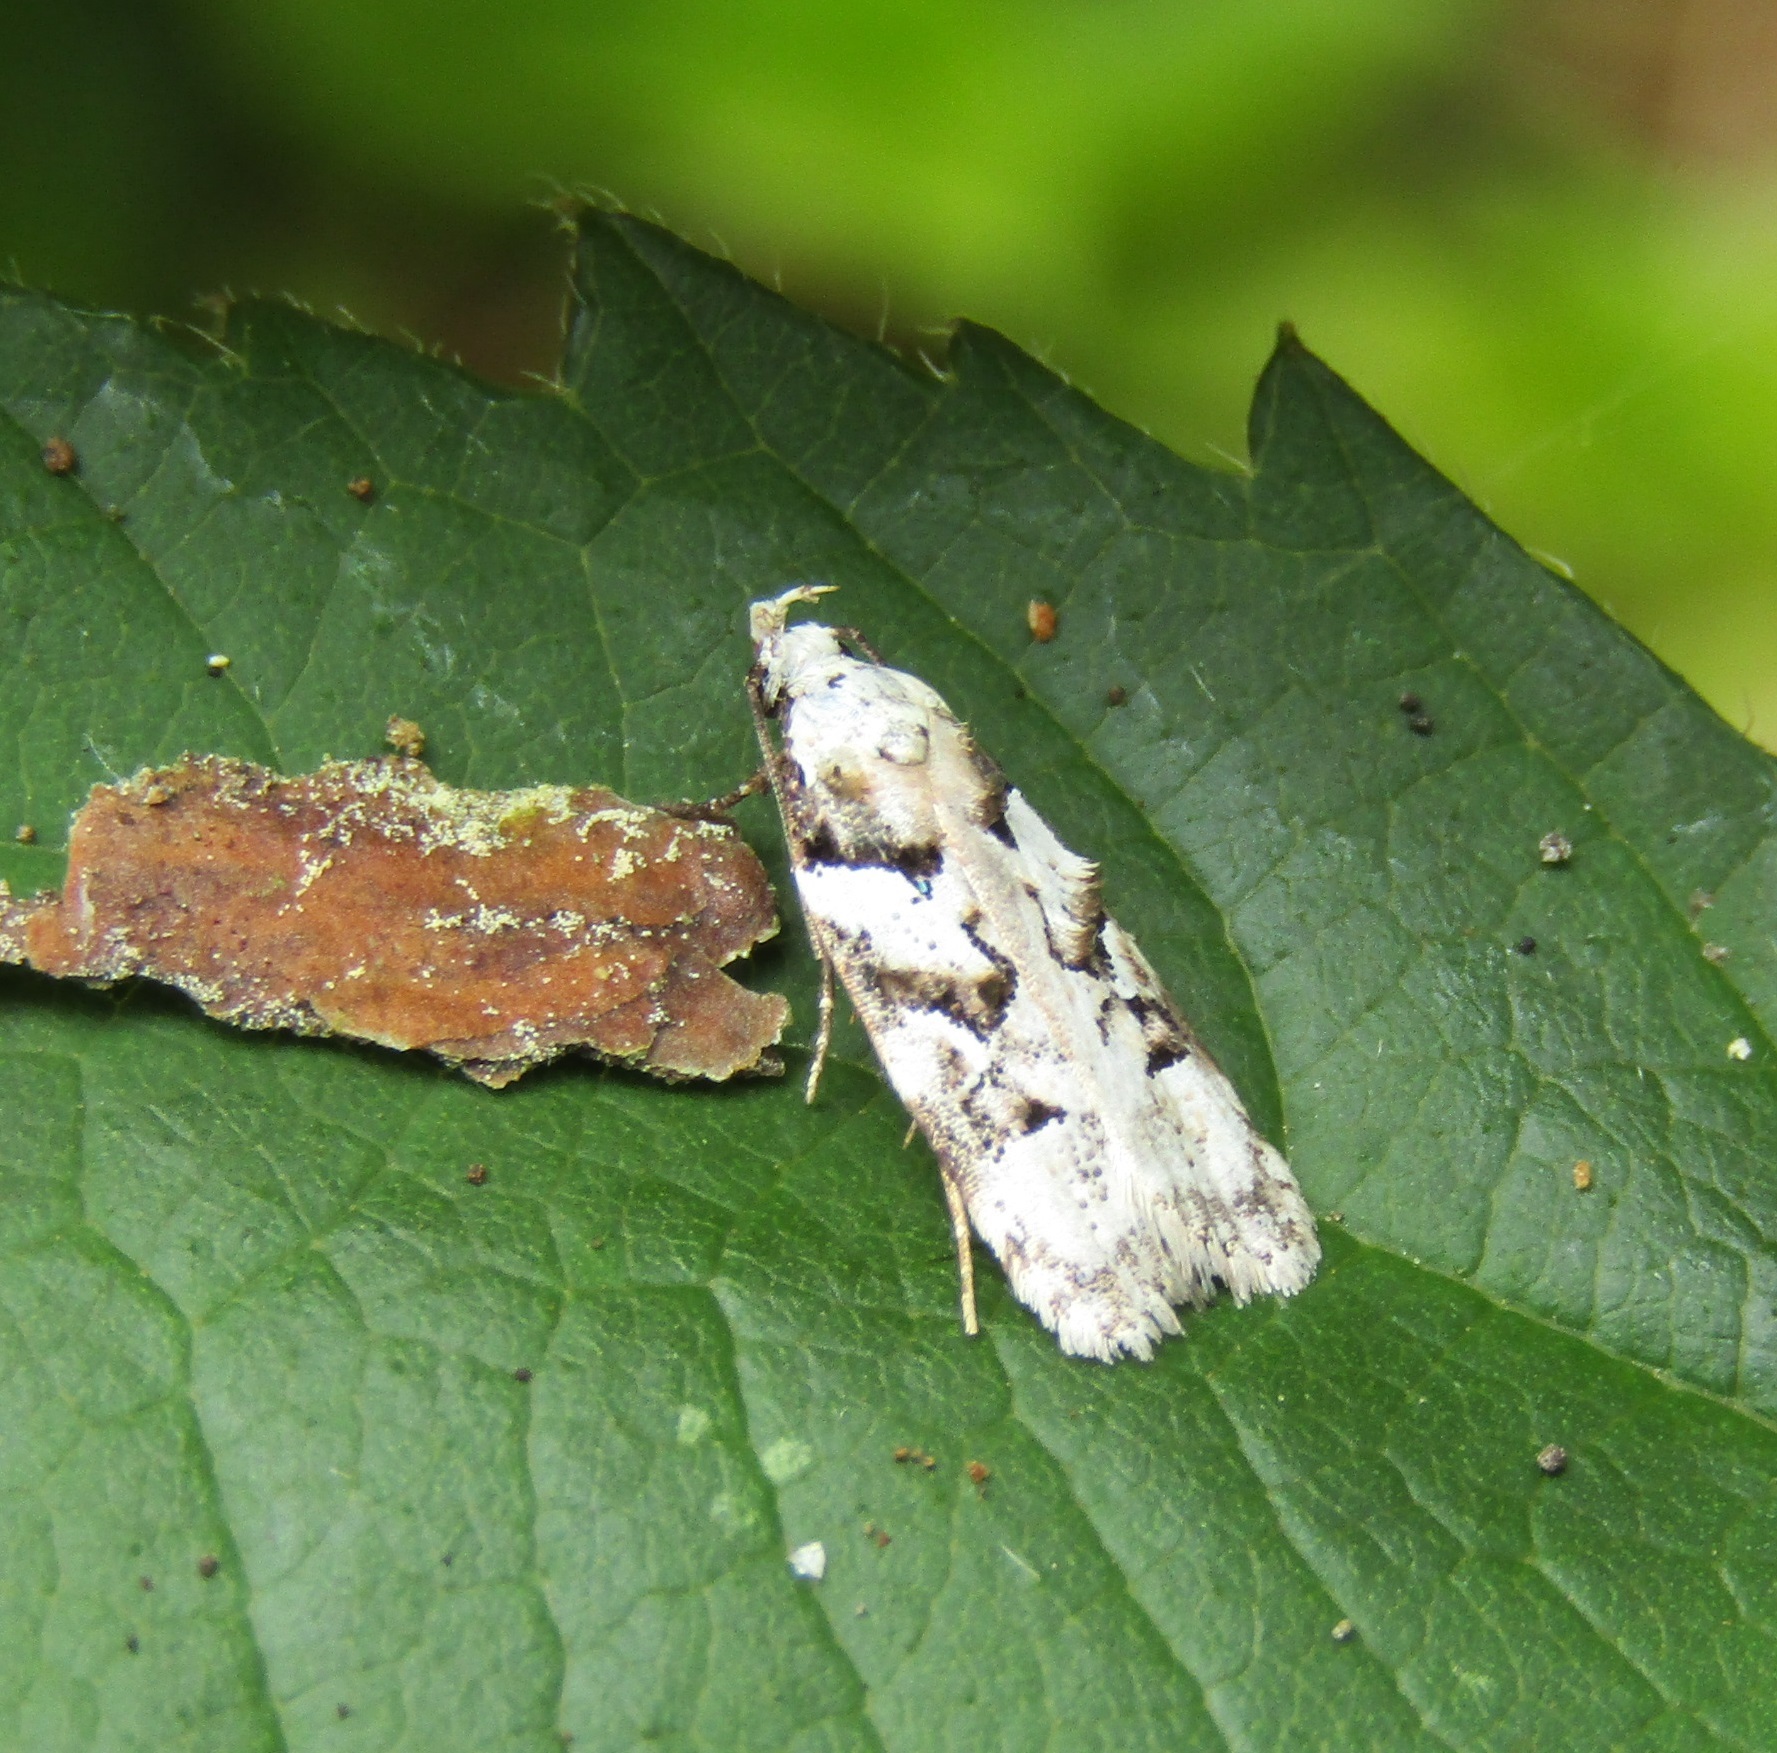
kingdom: Animalia
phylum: Arthropoda
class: Insecta
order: Lepidoptera
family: Oecophoridae
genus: Izatha
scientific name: Izatha epiphanes
